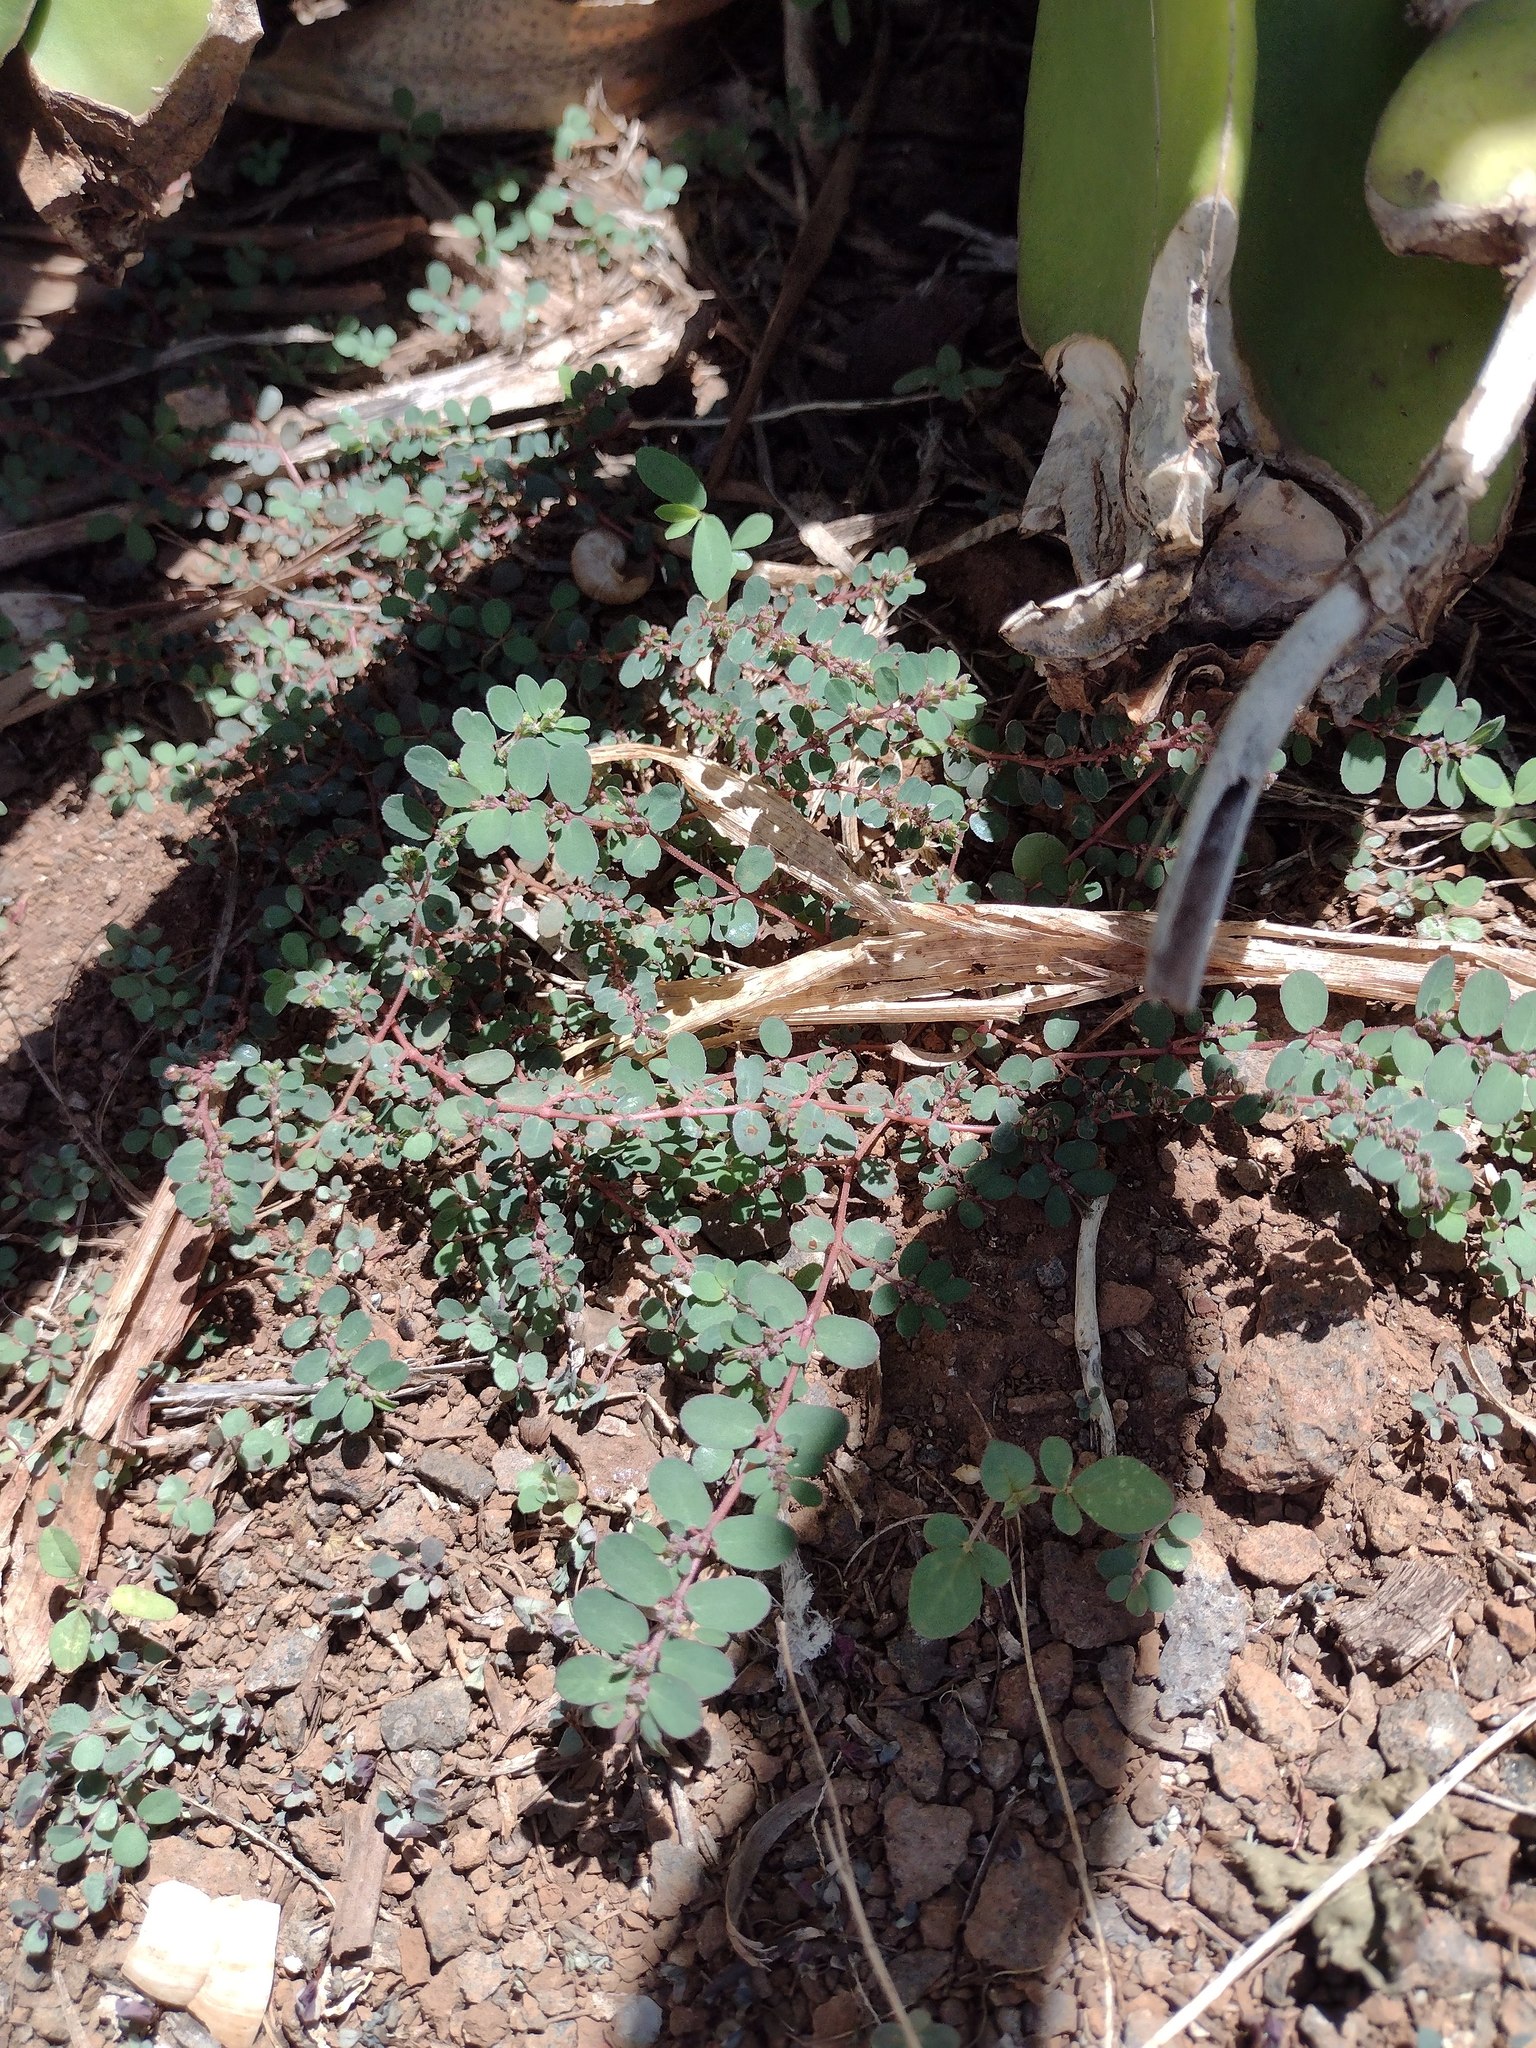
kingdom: Plantae
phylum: Tracheophyta
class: Magnoliopsida
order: Malpighiales
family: Euphorbiaceae
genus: Euphorbia
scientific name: Euphorbia prostrata
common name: Prostrate sandmat
